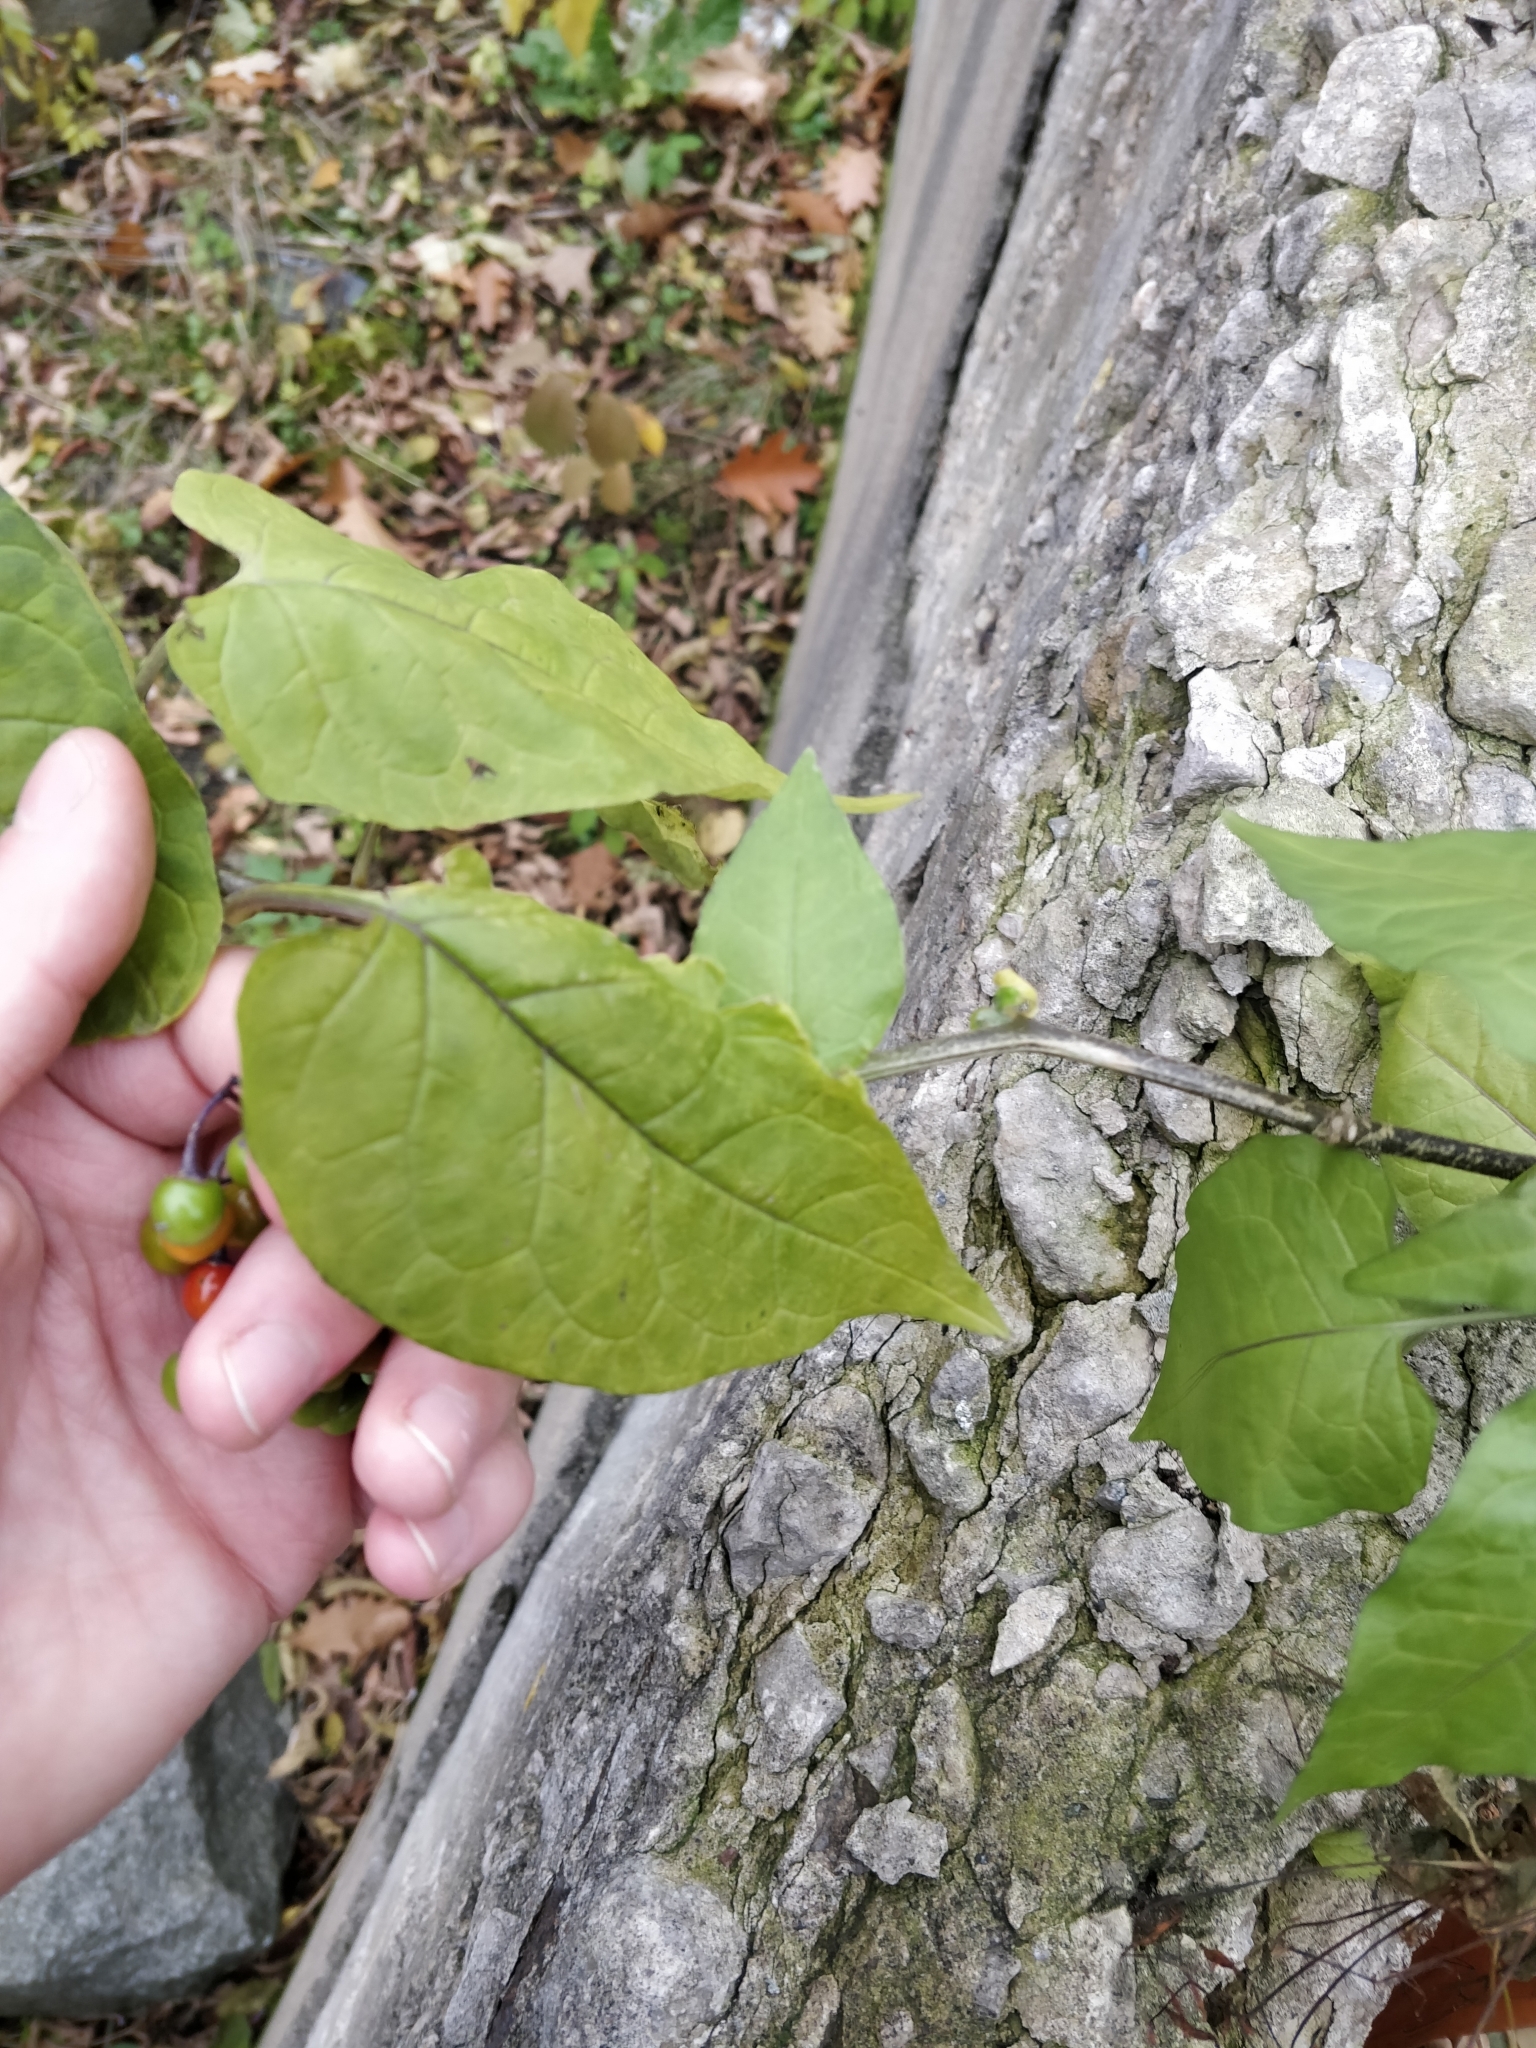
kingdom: Plantae
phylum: Tracheophyta
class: Magnoliopsida
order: Solanales
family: Solanaceae
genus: Solanum
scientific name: Solanum dulcamara
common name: Climbing nightshade
